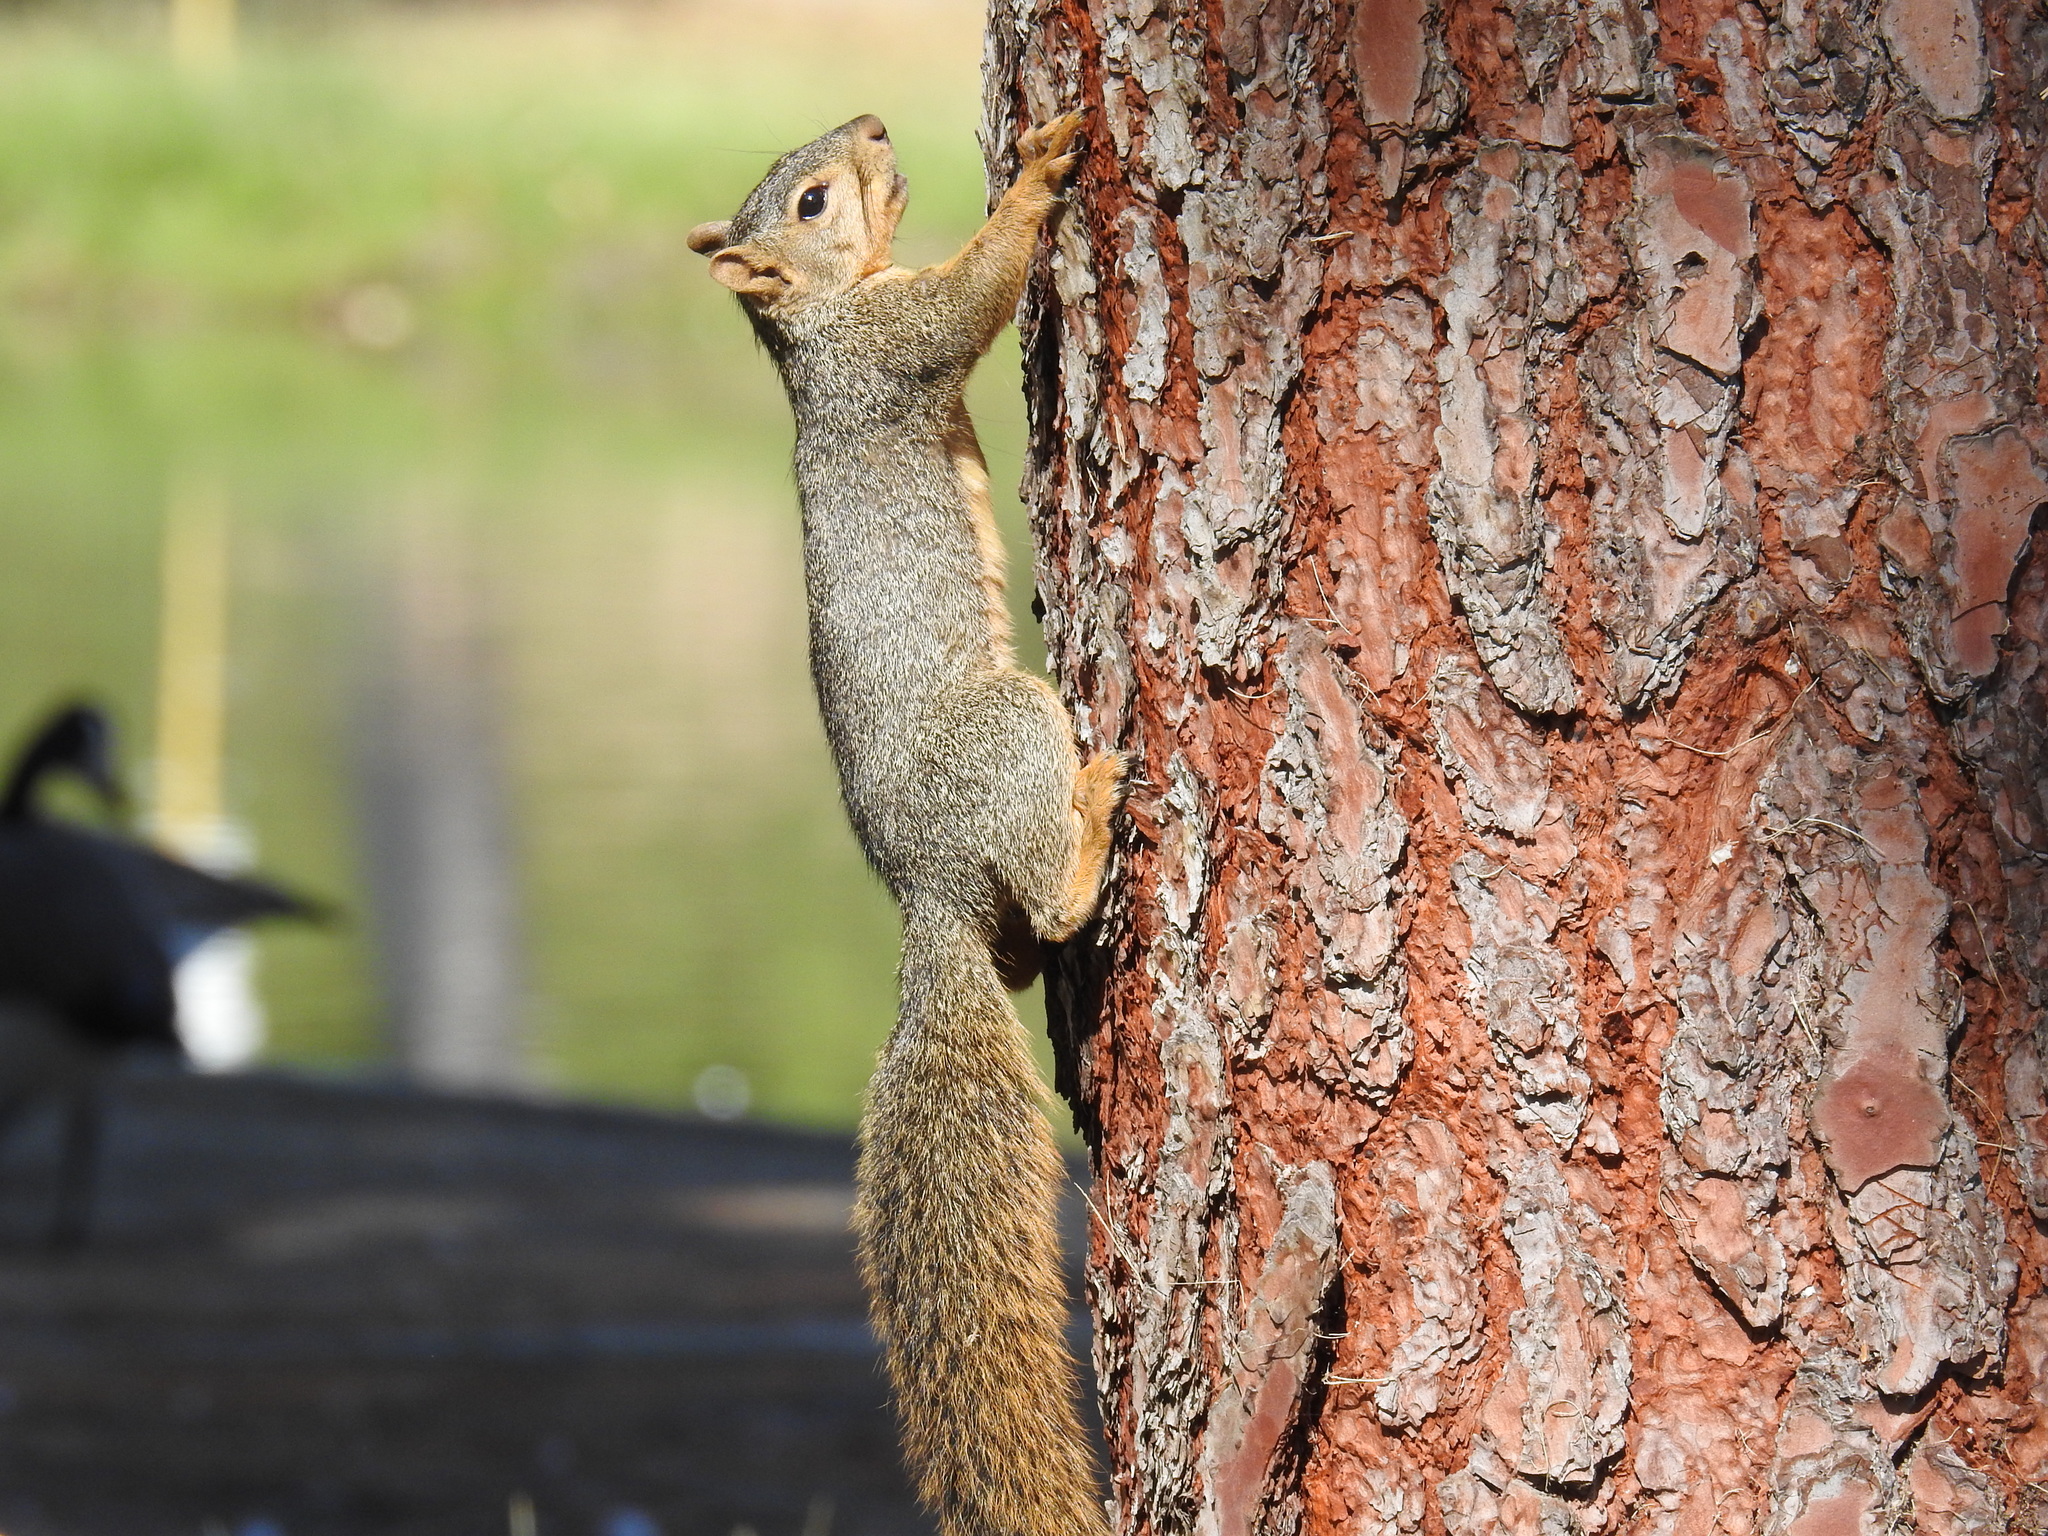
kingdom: Animalia
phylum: Chordata
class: Mammalia
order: Rodentia
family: Sciuridae
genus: Sciurus
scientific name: Sciurus niger
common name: Fox squirrel
